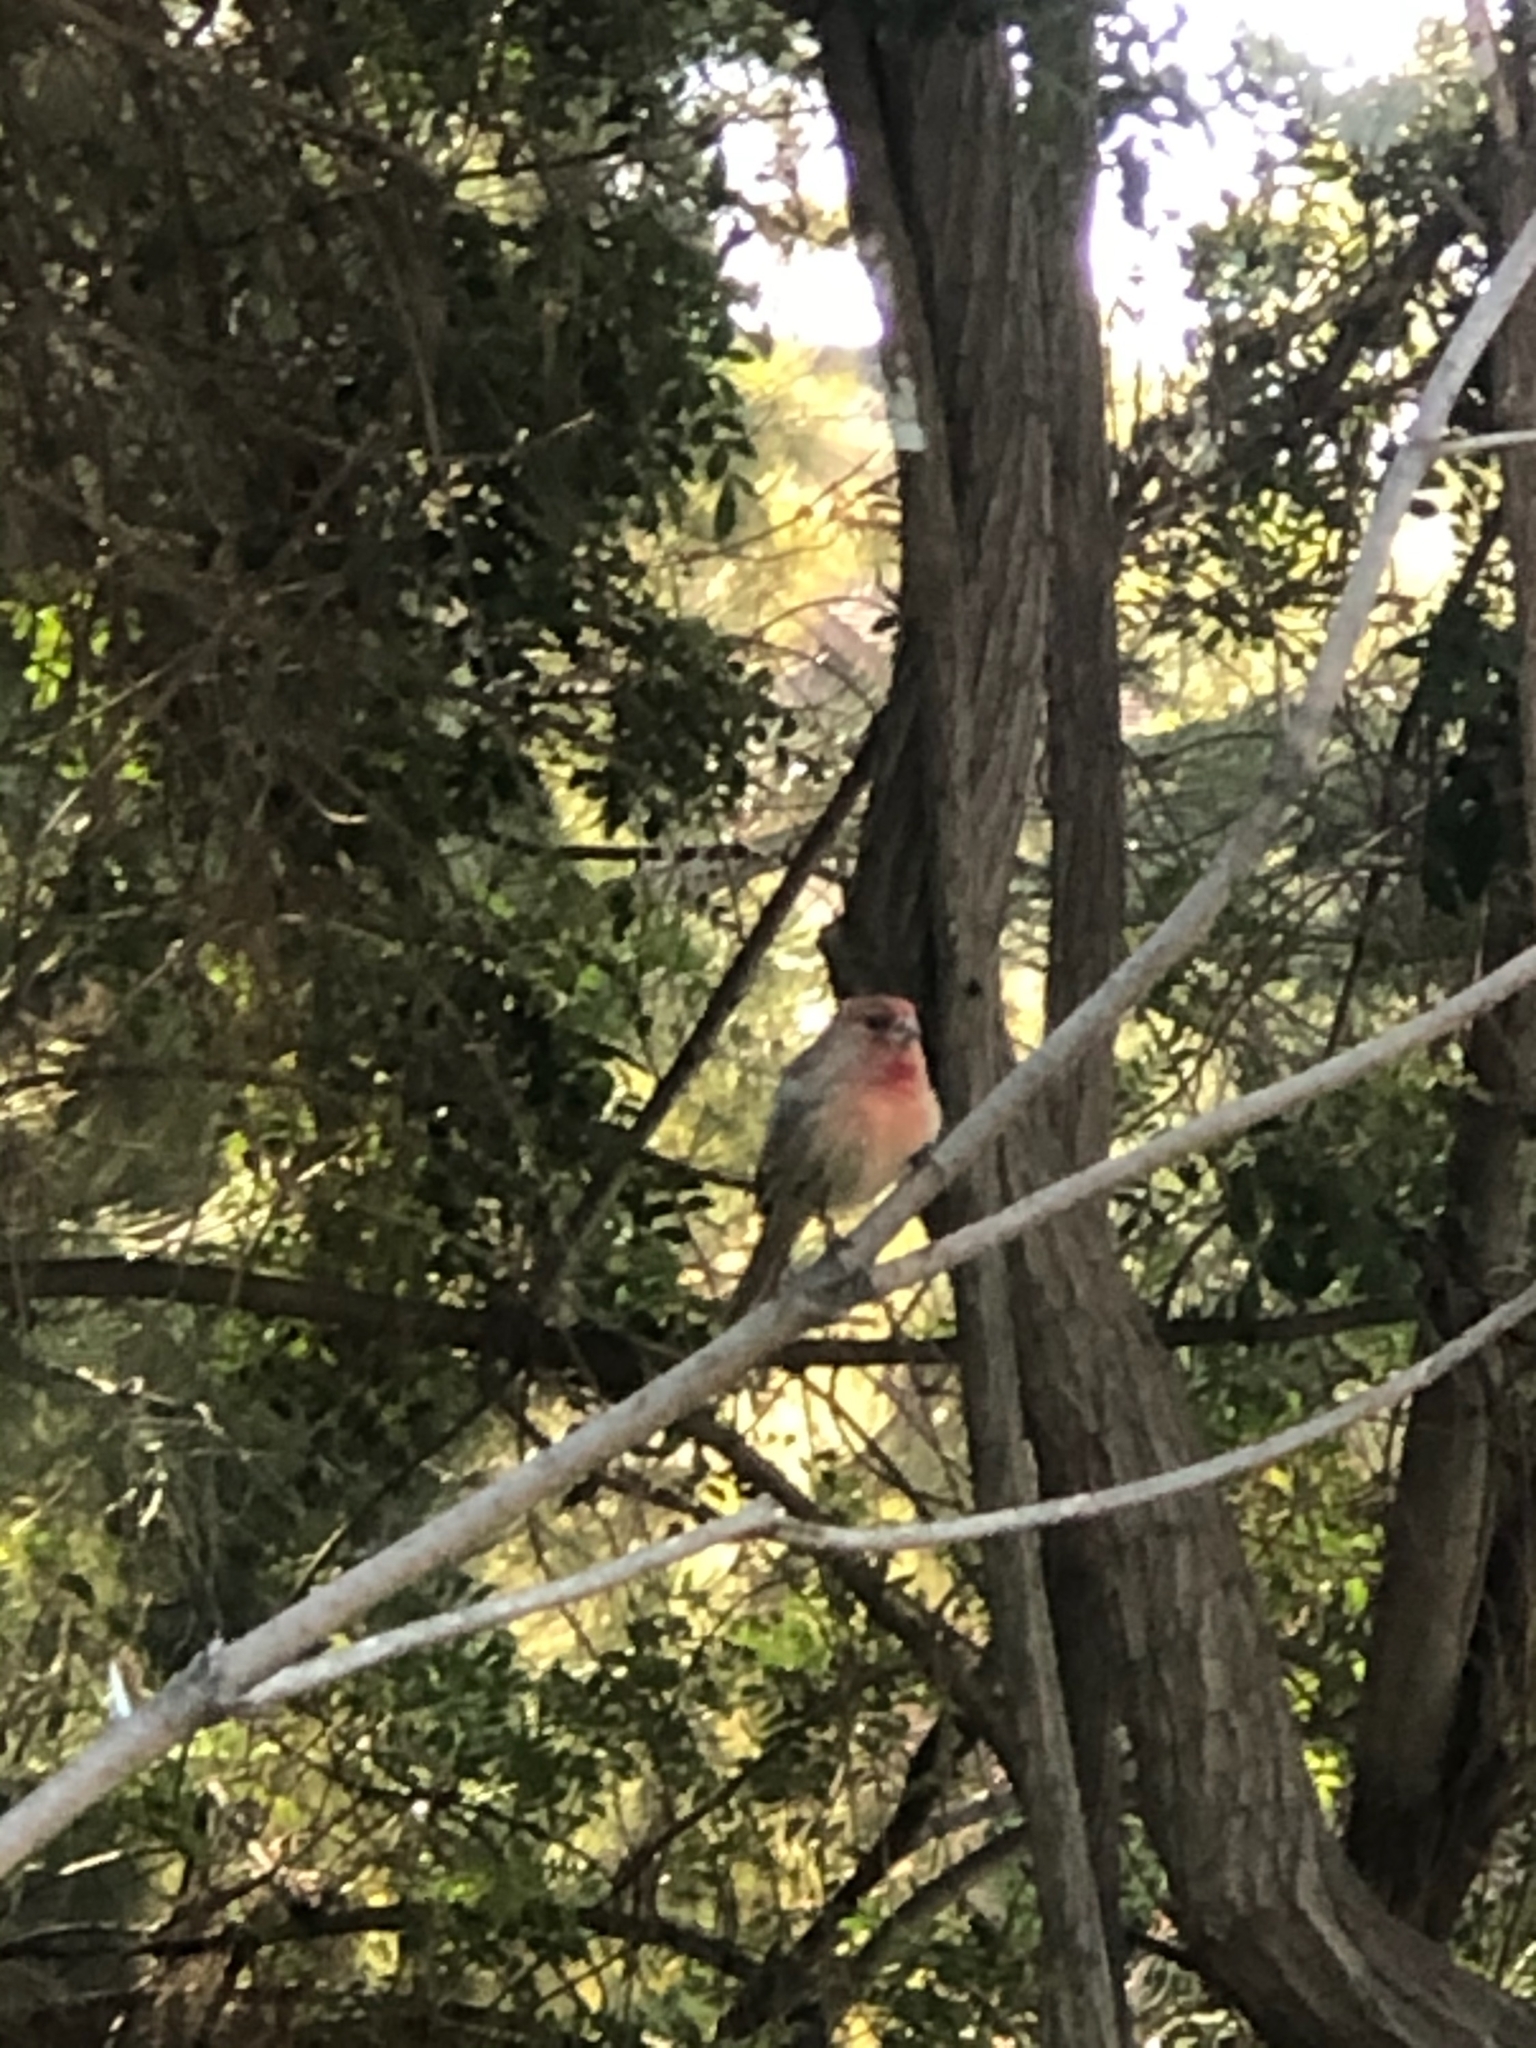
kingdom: Animalia
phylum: Chordata
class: Aves
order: Passeriformes
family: Fringillidae
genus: Haemorhous
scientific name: Haemorhous mexicanus
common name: House finch
